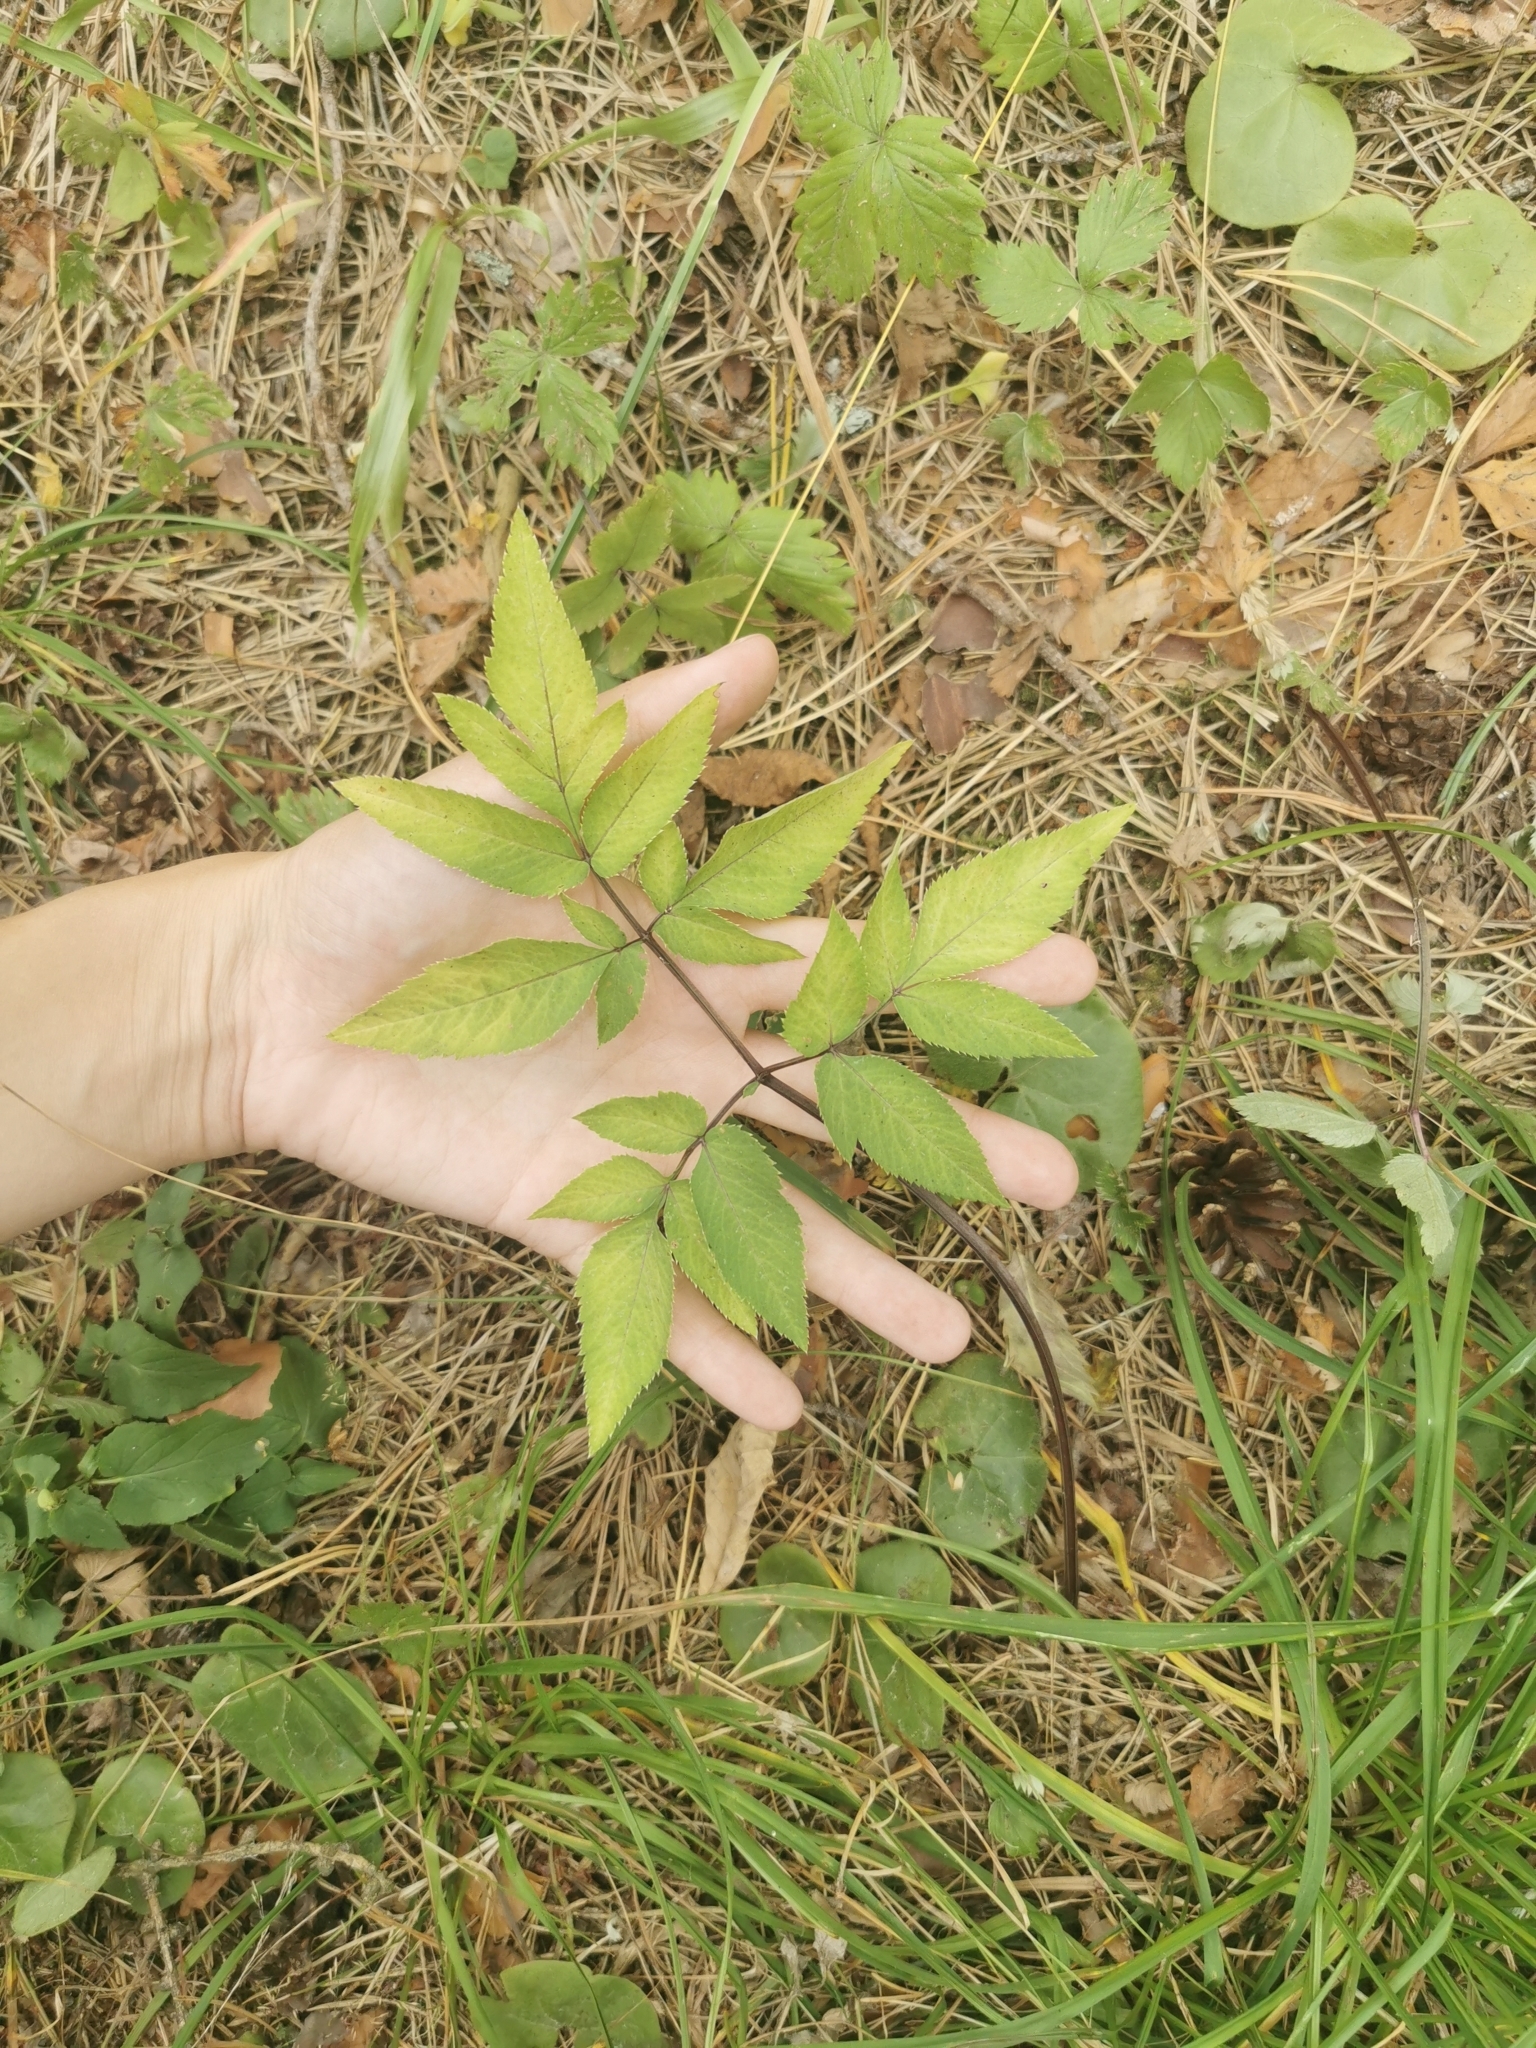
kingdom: Plantae
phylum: Tracheophyta
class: Magnoliopsida
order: Apiales
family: Apiaceae
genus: Angelica
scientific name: Angelica sylvestris
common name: Wild angelica
